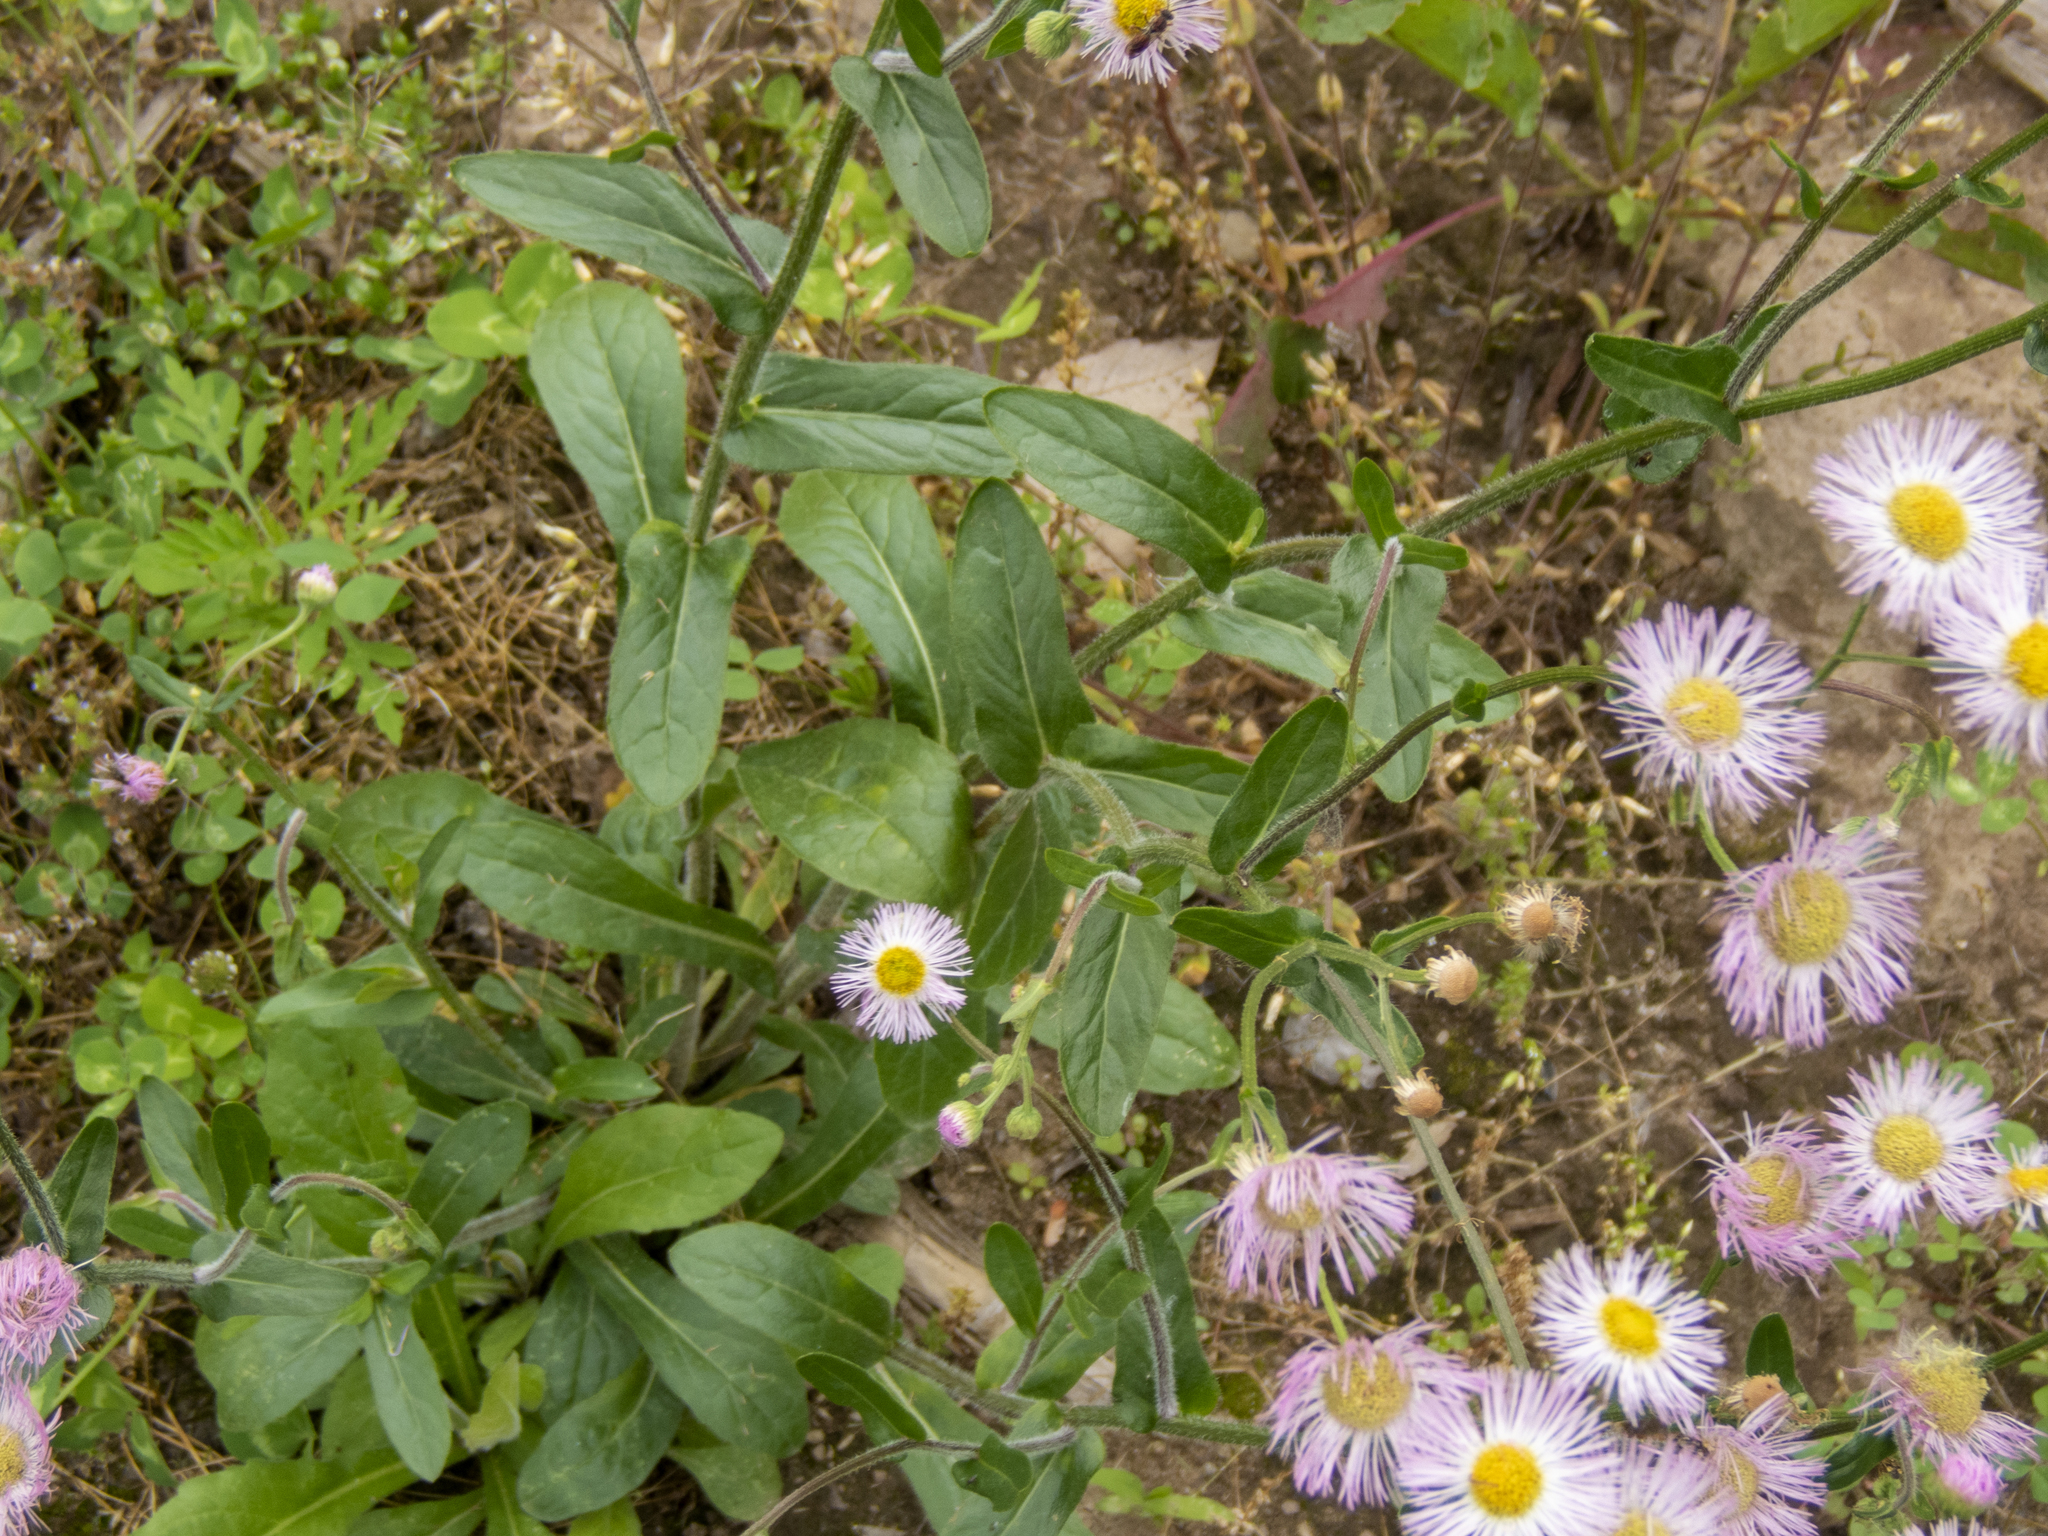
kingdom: Plantae
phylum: Tracheophyta
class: Magnoliopsida
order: Asterales
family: Asteraceae
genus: Erigeron
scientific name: Erigeron philadelphicus
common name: Robin's-plantain
